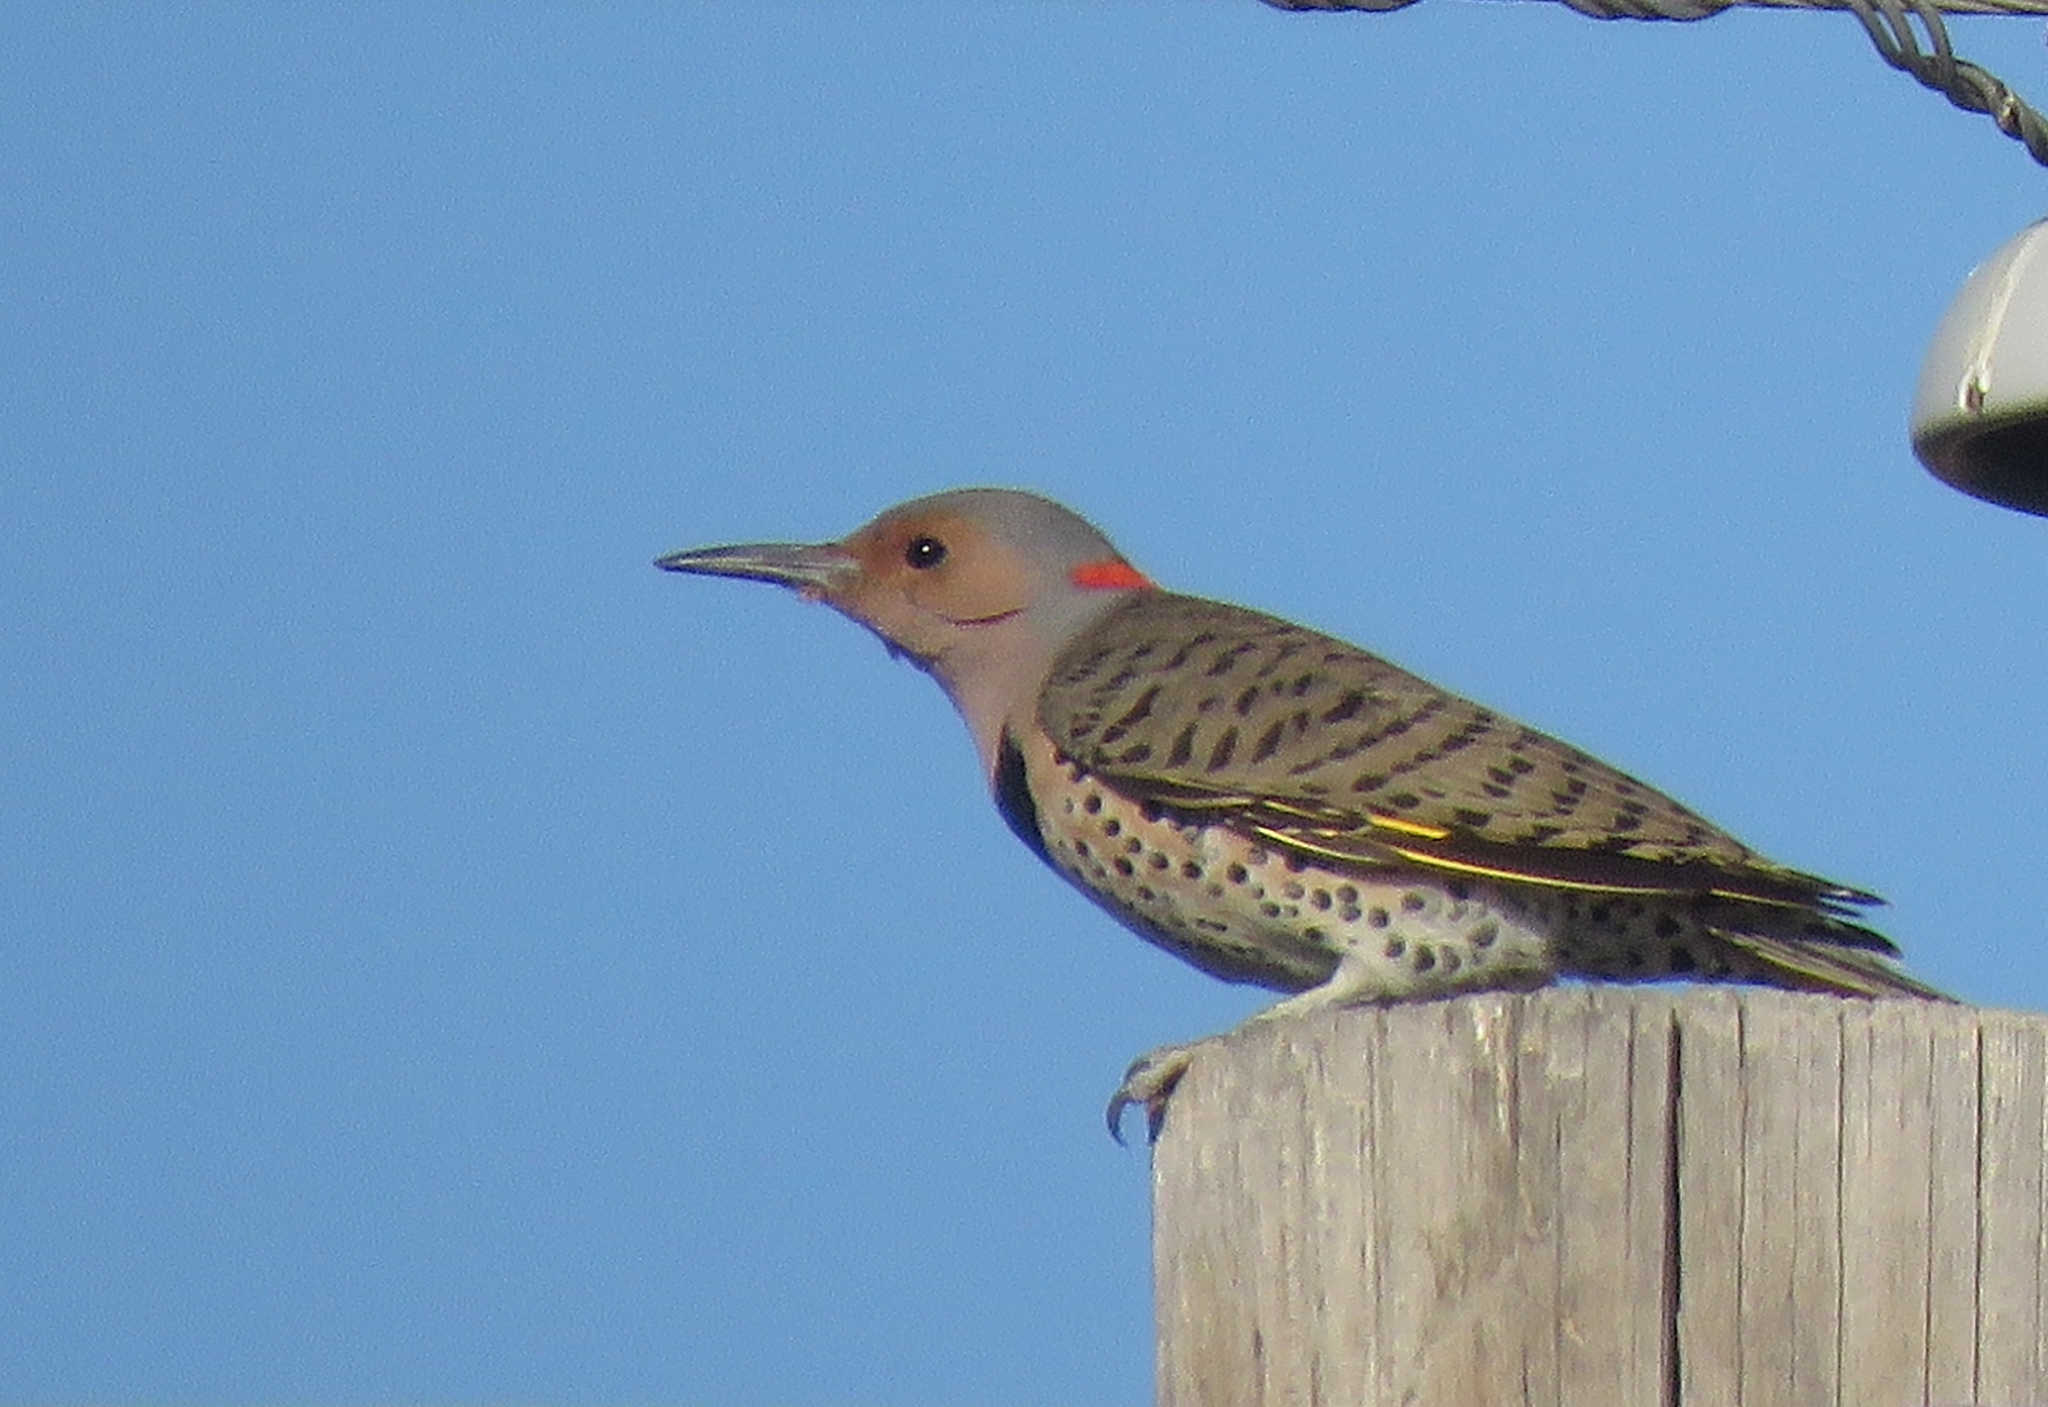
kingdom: Animalia
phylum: Chordata
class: Aves
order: Piciformes
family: Picidae
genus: Colaptes
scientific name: Colaptes auratus
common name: Northern flicker
